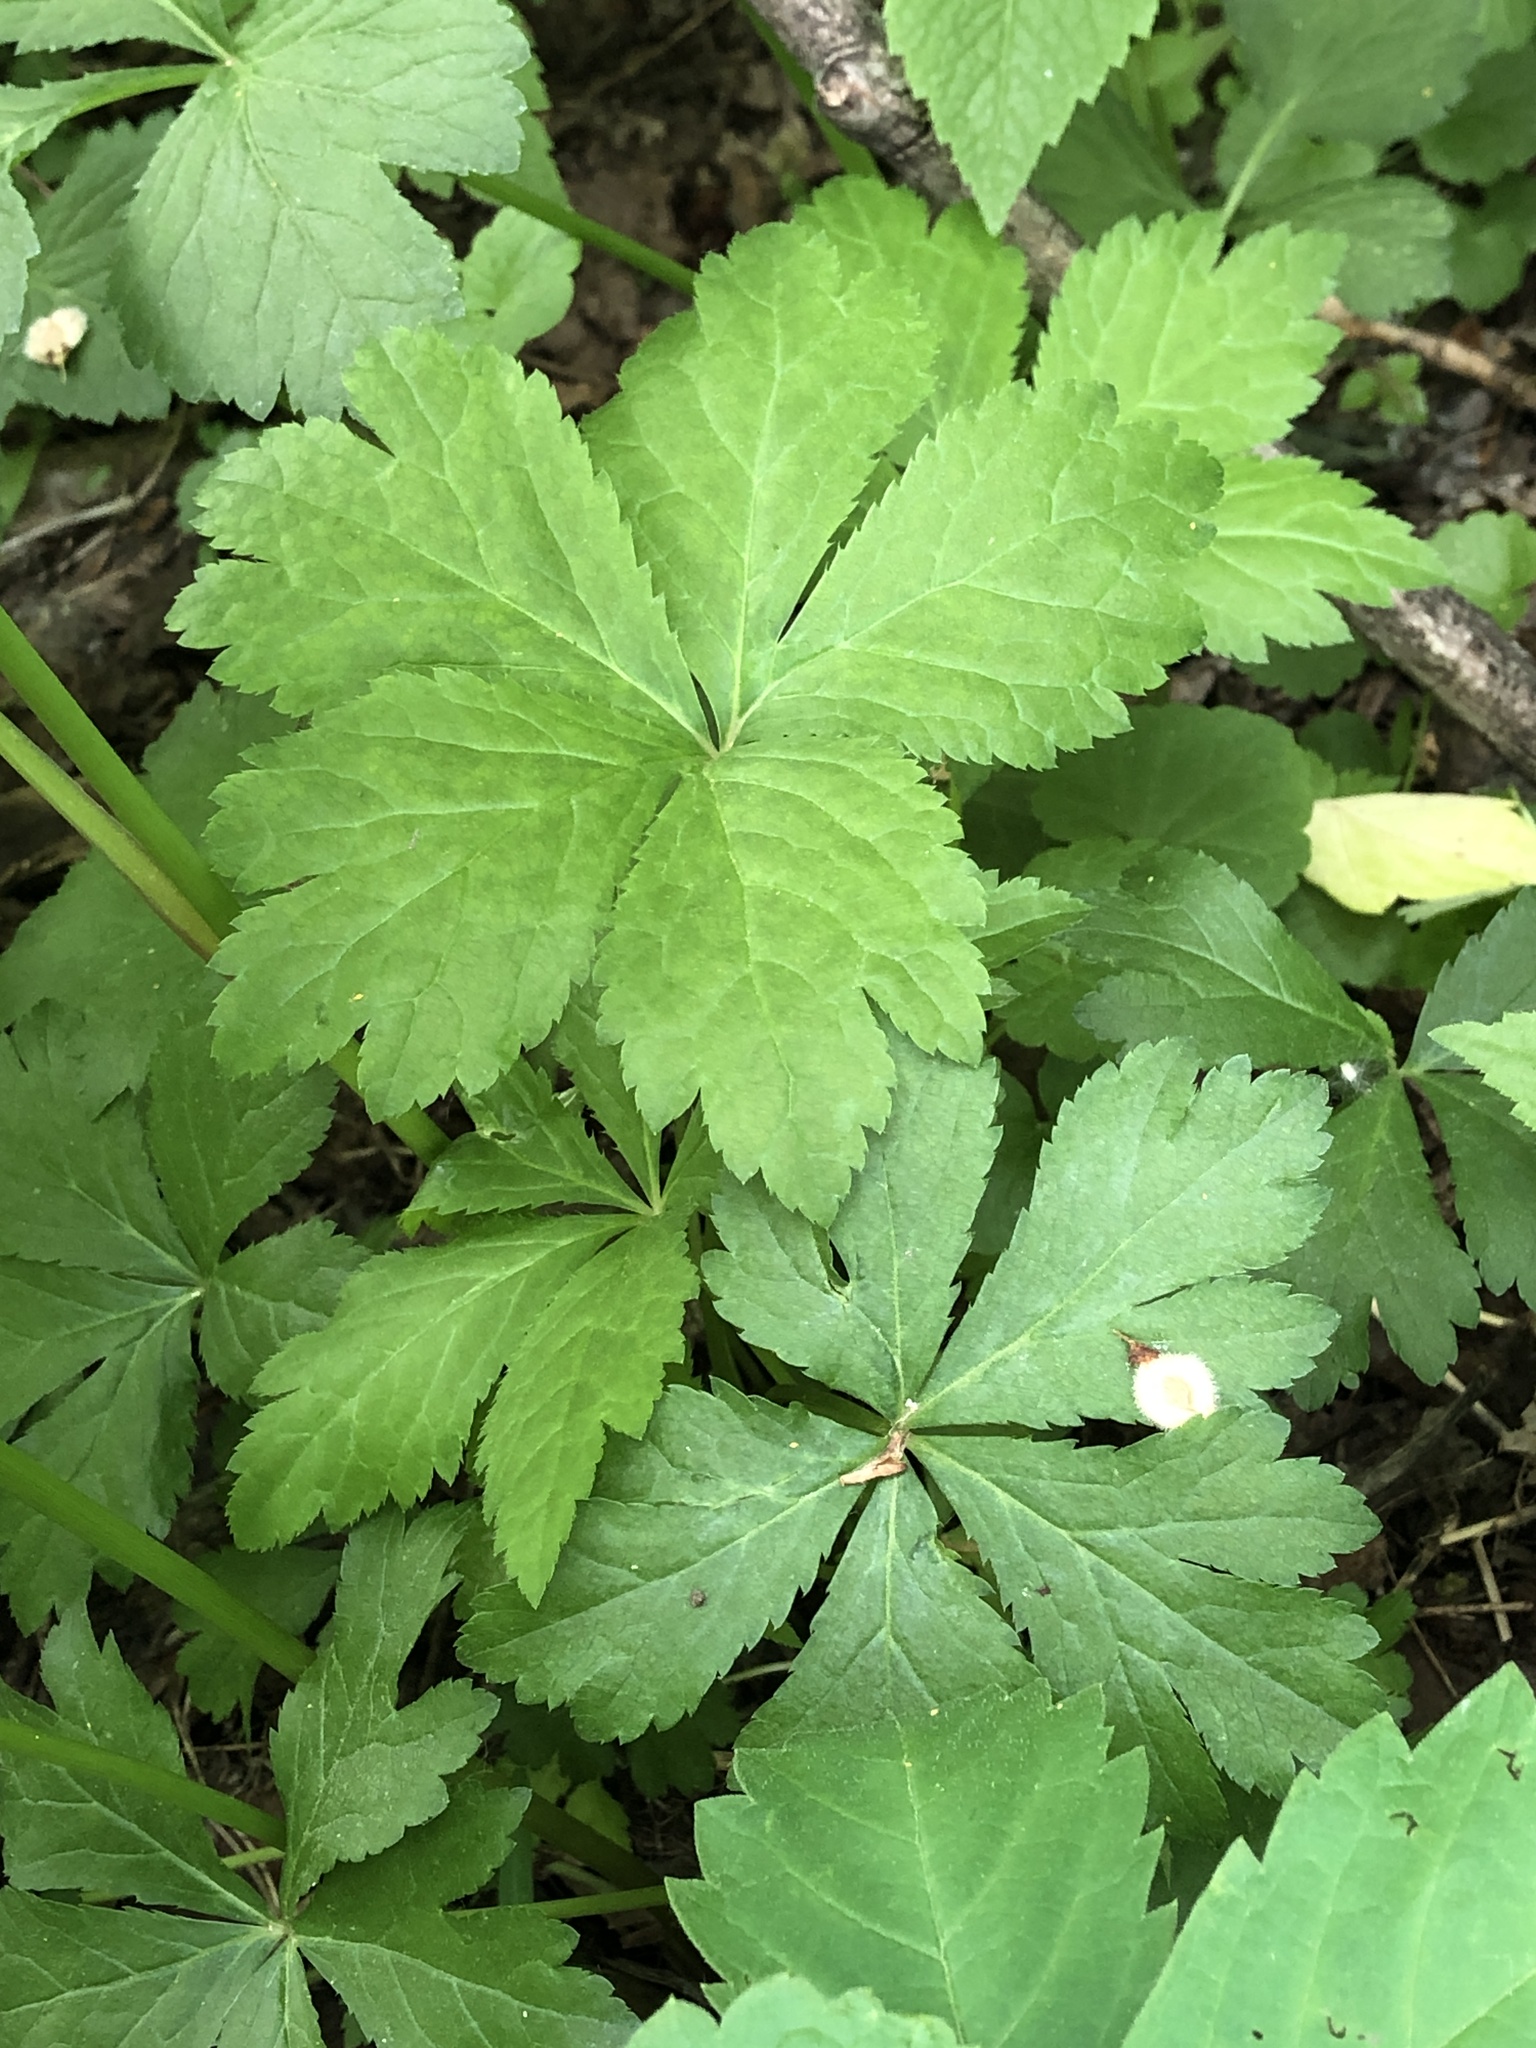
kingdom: Plantae
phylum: Tracheophyta
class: Magnoliopsida
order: Apiales
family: Apiaceae
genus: Sanicula
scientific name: Sanicula odorata
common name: Cluster sanicle
